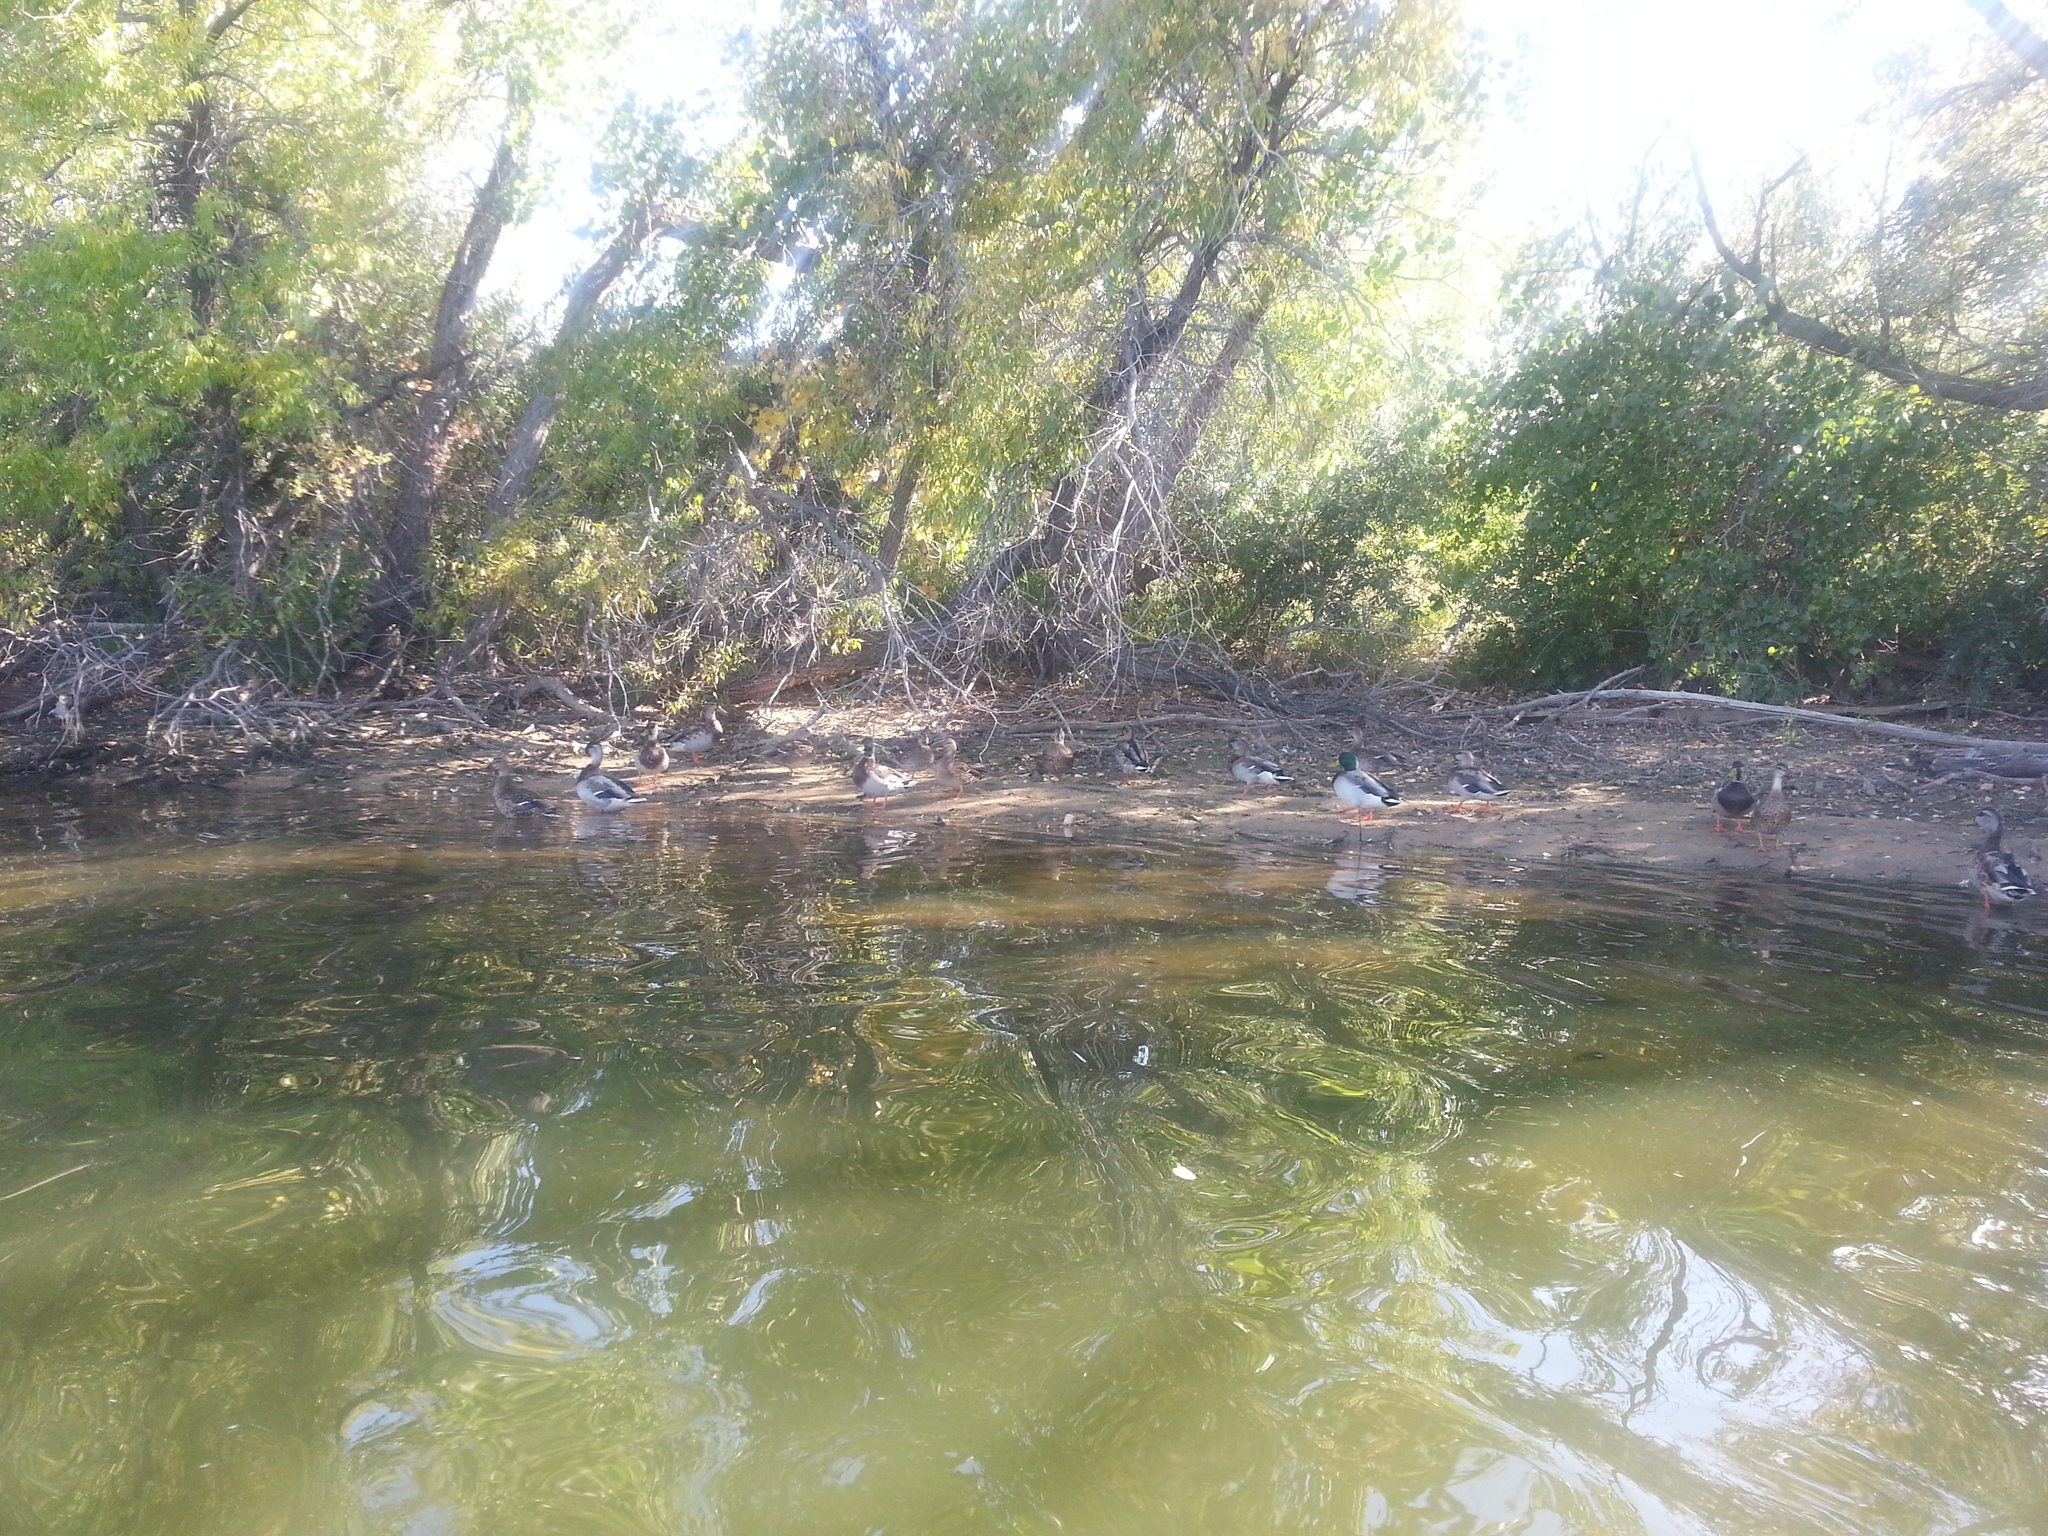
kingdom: Animalia
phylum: Chordata
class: Aves
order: Anseriformes
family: Anatidae
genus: Anas
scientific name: Anas platyrhynchos
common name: Mallard
